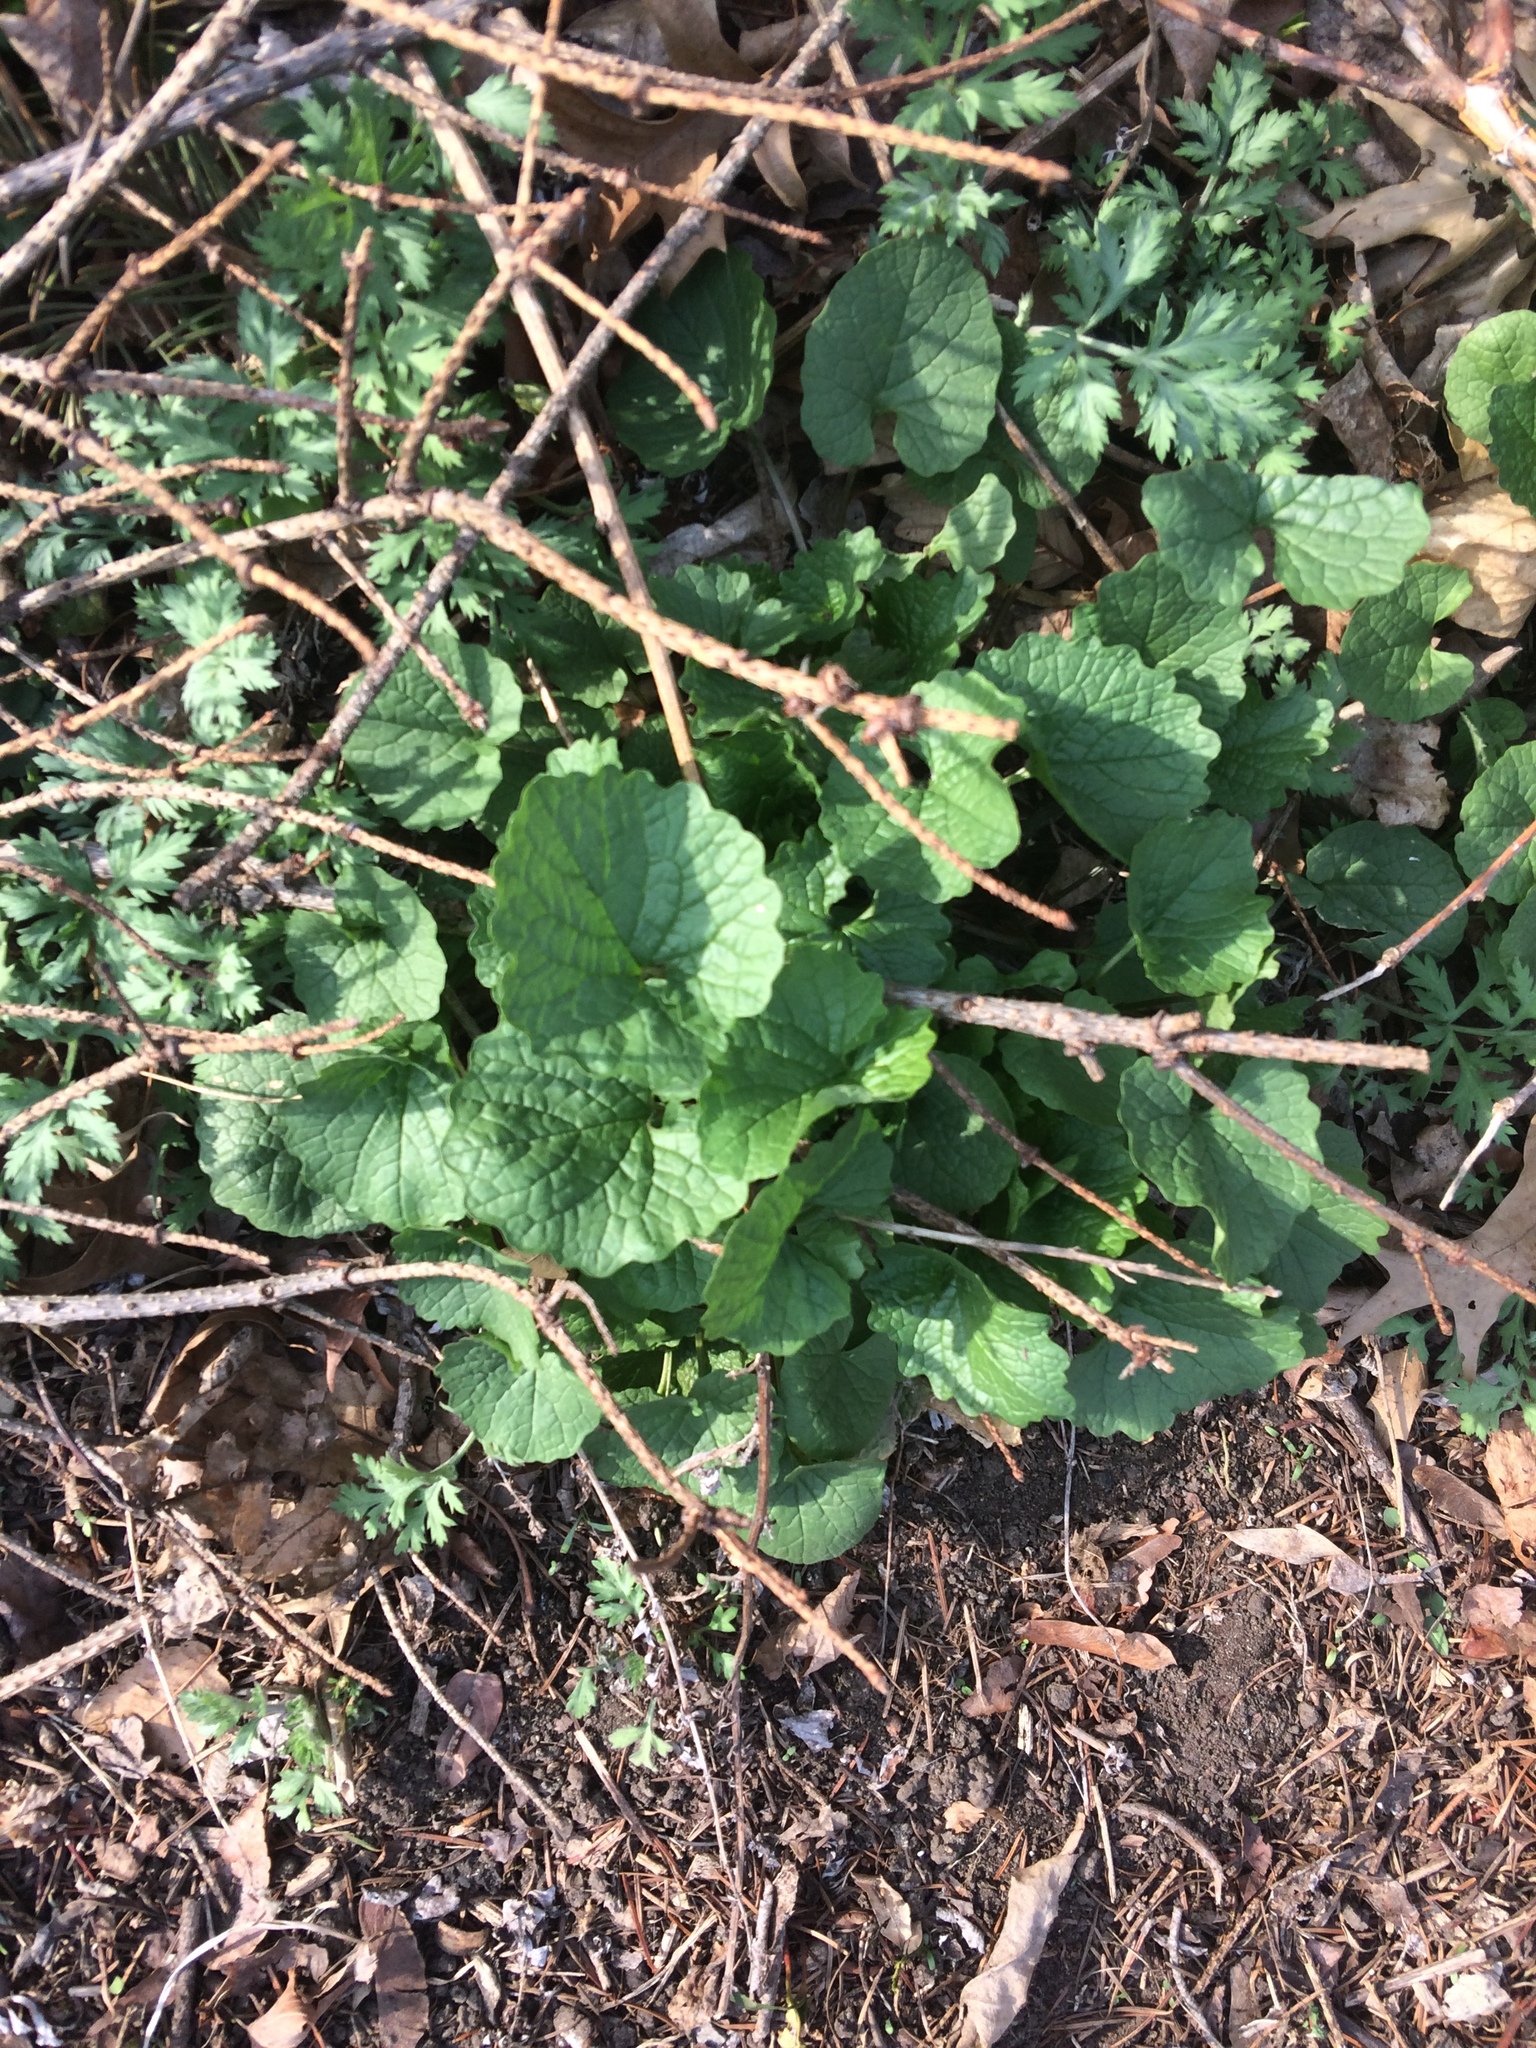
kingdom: Plantae
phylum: Tracheophyta
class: Magnoliopsida
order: Brassicales
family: Brassicaceae
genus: Alliaria
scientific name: Alliaria petiolata
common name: Garlic mustard
